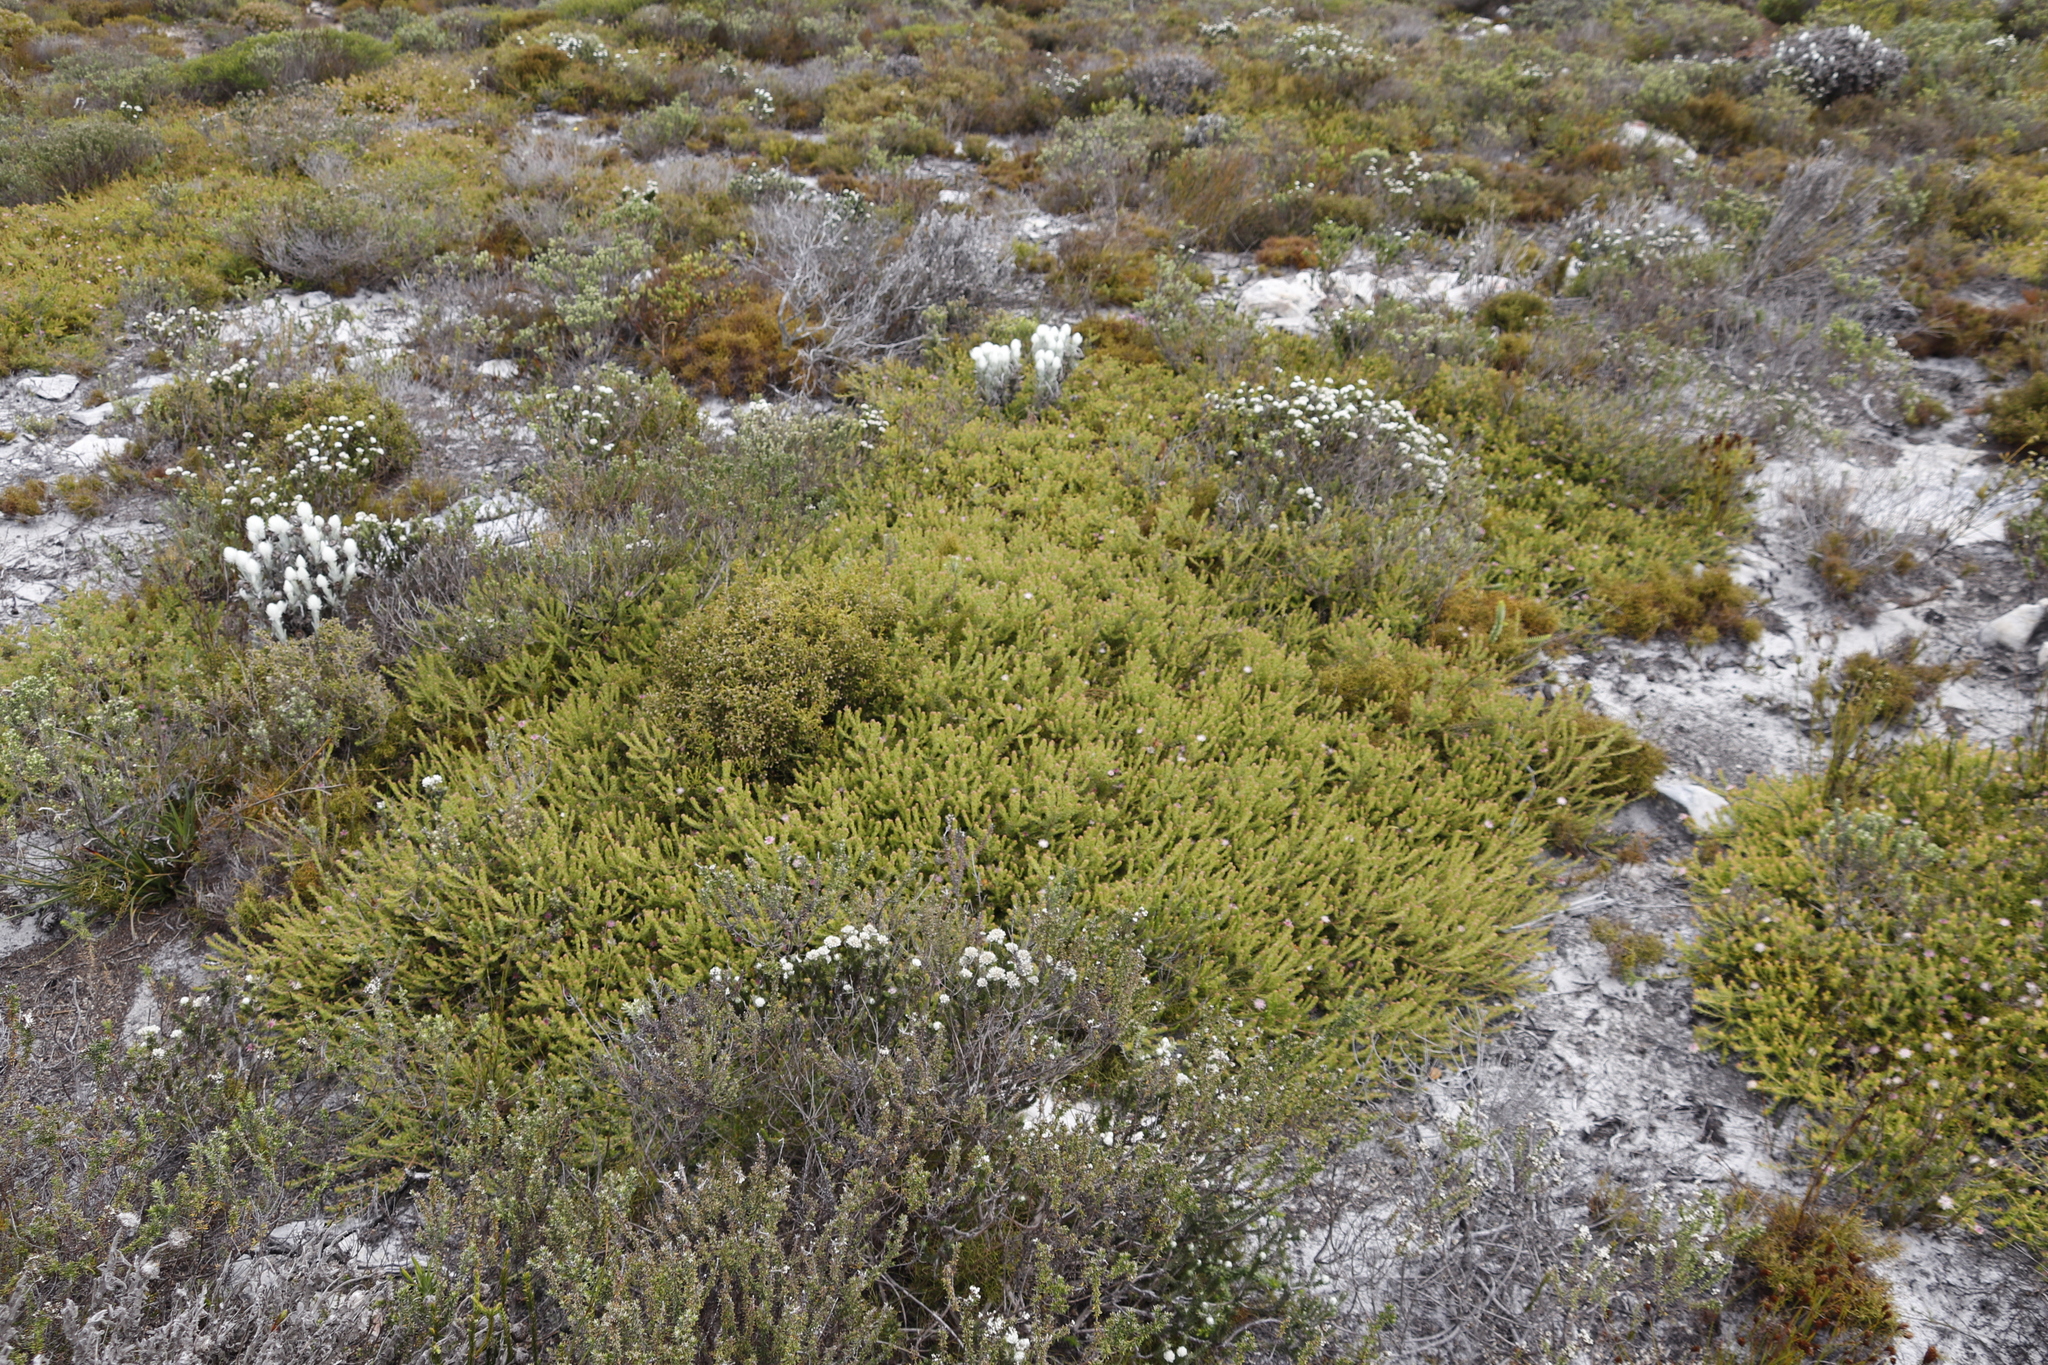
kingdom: Plantae
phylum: Tracheophyta
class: Magnoliopsida
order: Proteales
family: Proteaceae
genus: Diastella
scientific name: Diastella divaricata
